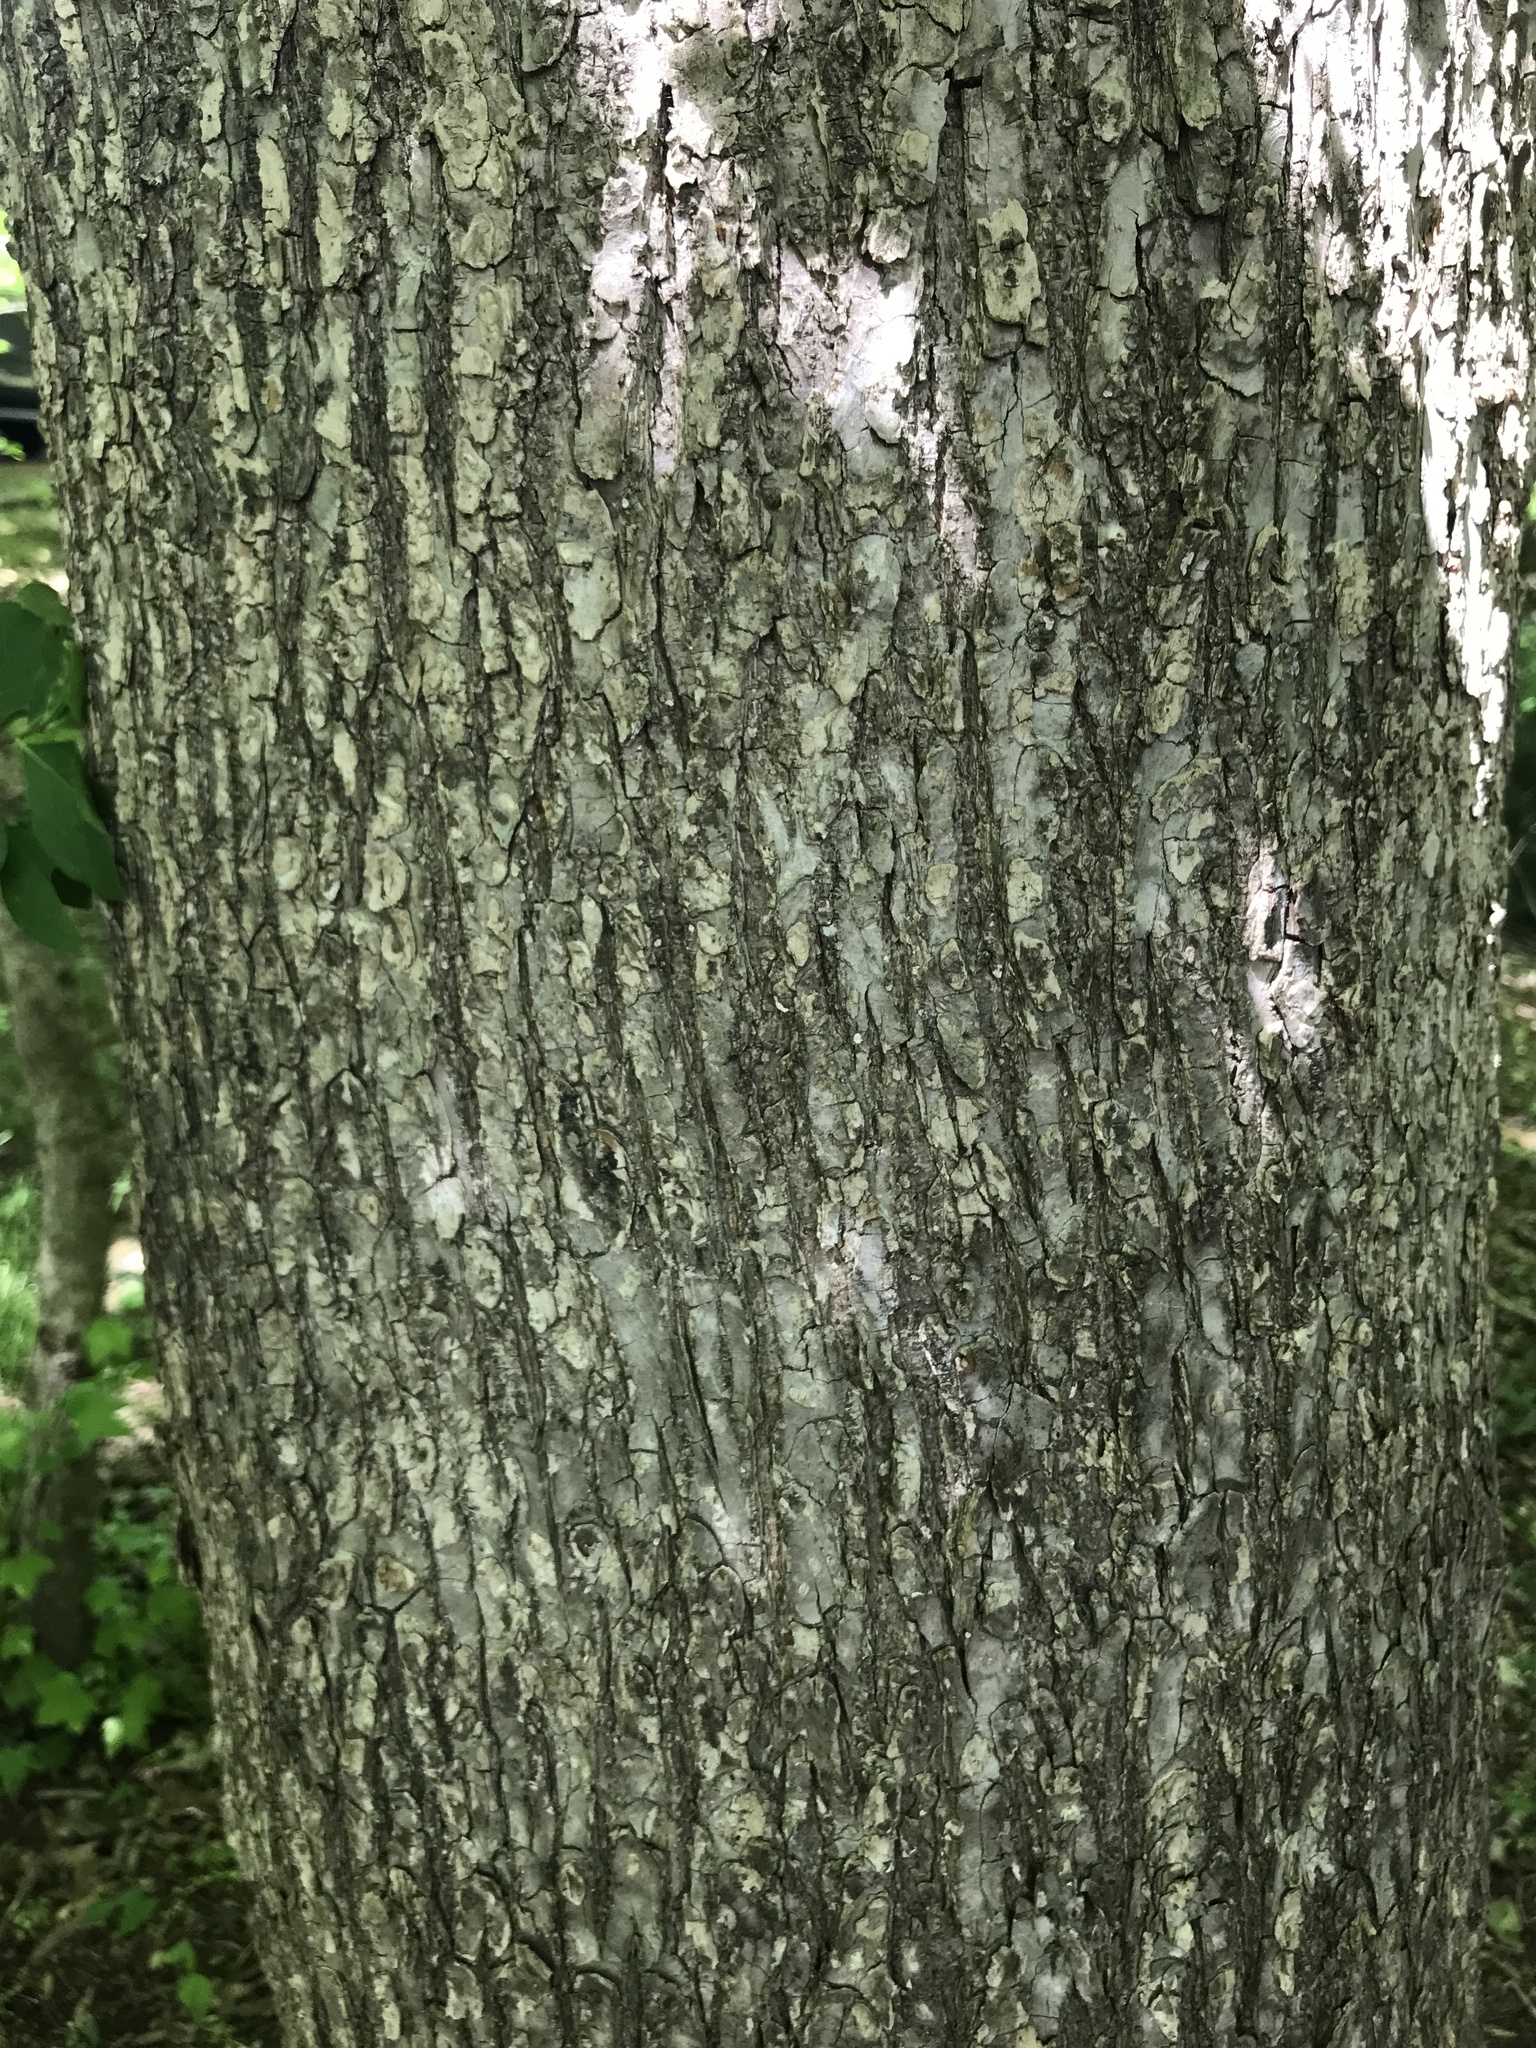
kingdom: Plantae
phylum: Tracheophyta
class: Magnoliopsida
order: Rosales
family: Ulmaceae
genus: Ulmus
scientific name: Ulmus rubra
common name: Slippery elm
